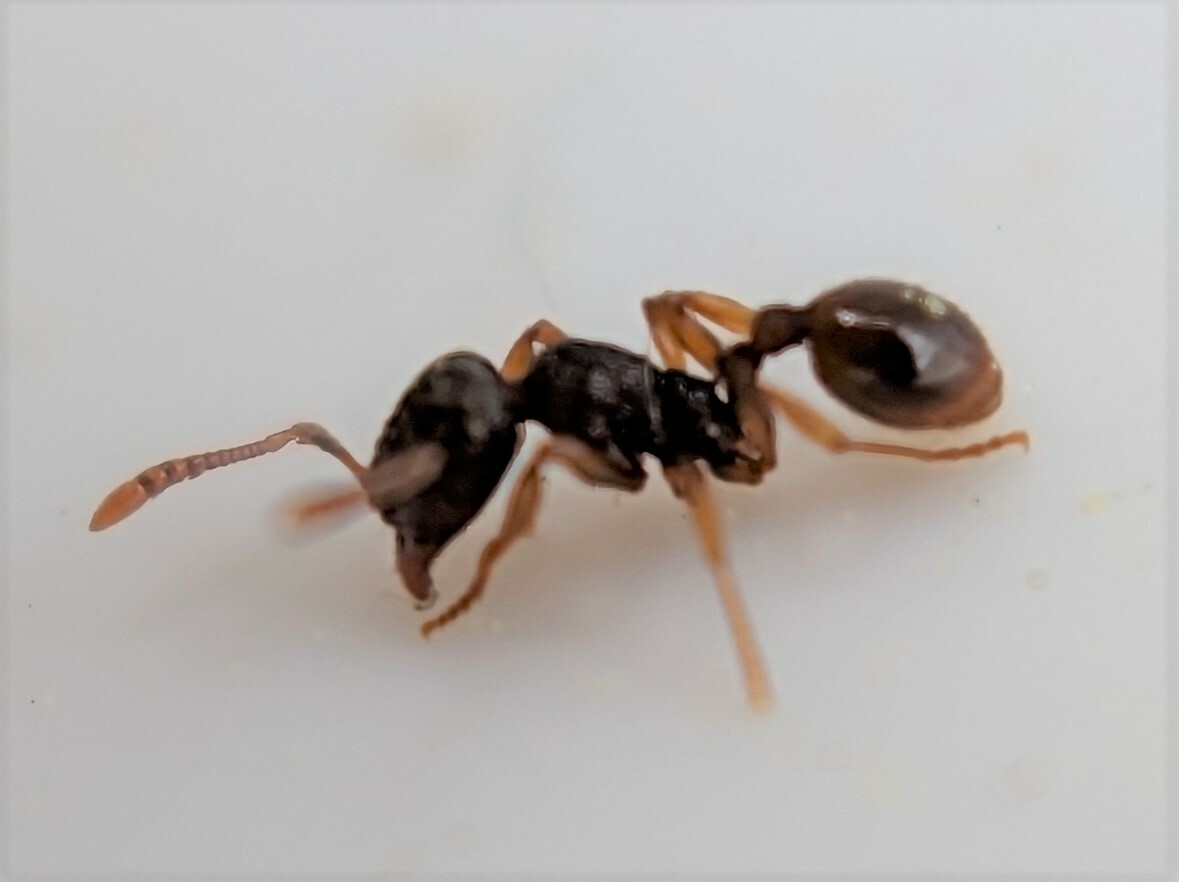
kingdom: Animalia
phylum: Arthropoda
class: Insecta
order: Hymenoptera
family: Formicidae
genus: Tetramorium
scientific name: Tetramorium caespitum
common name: Pavement ant
